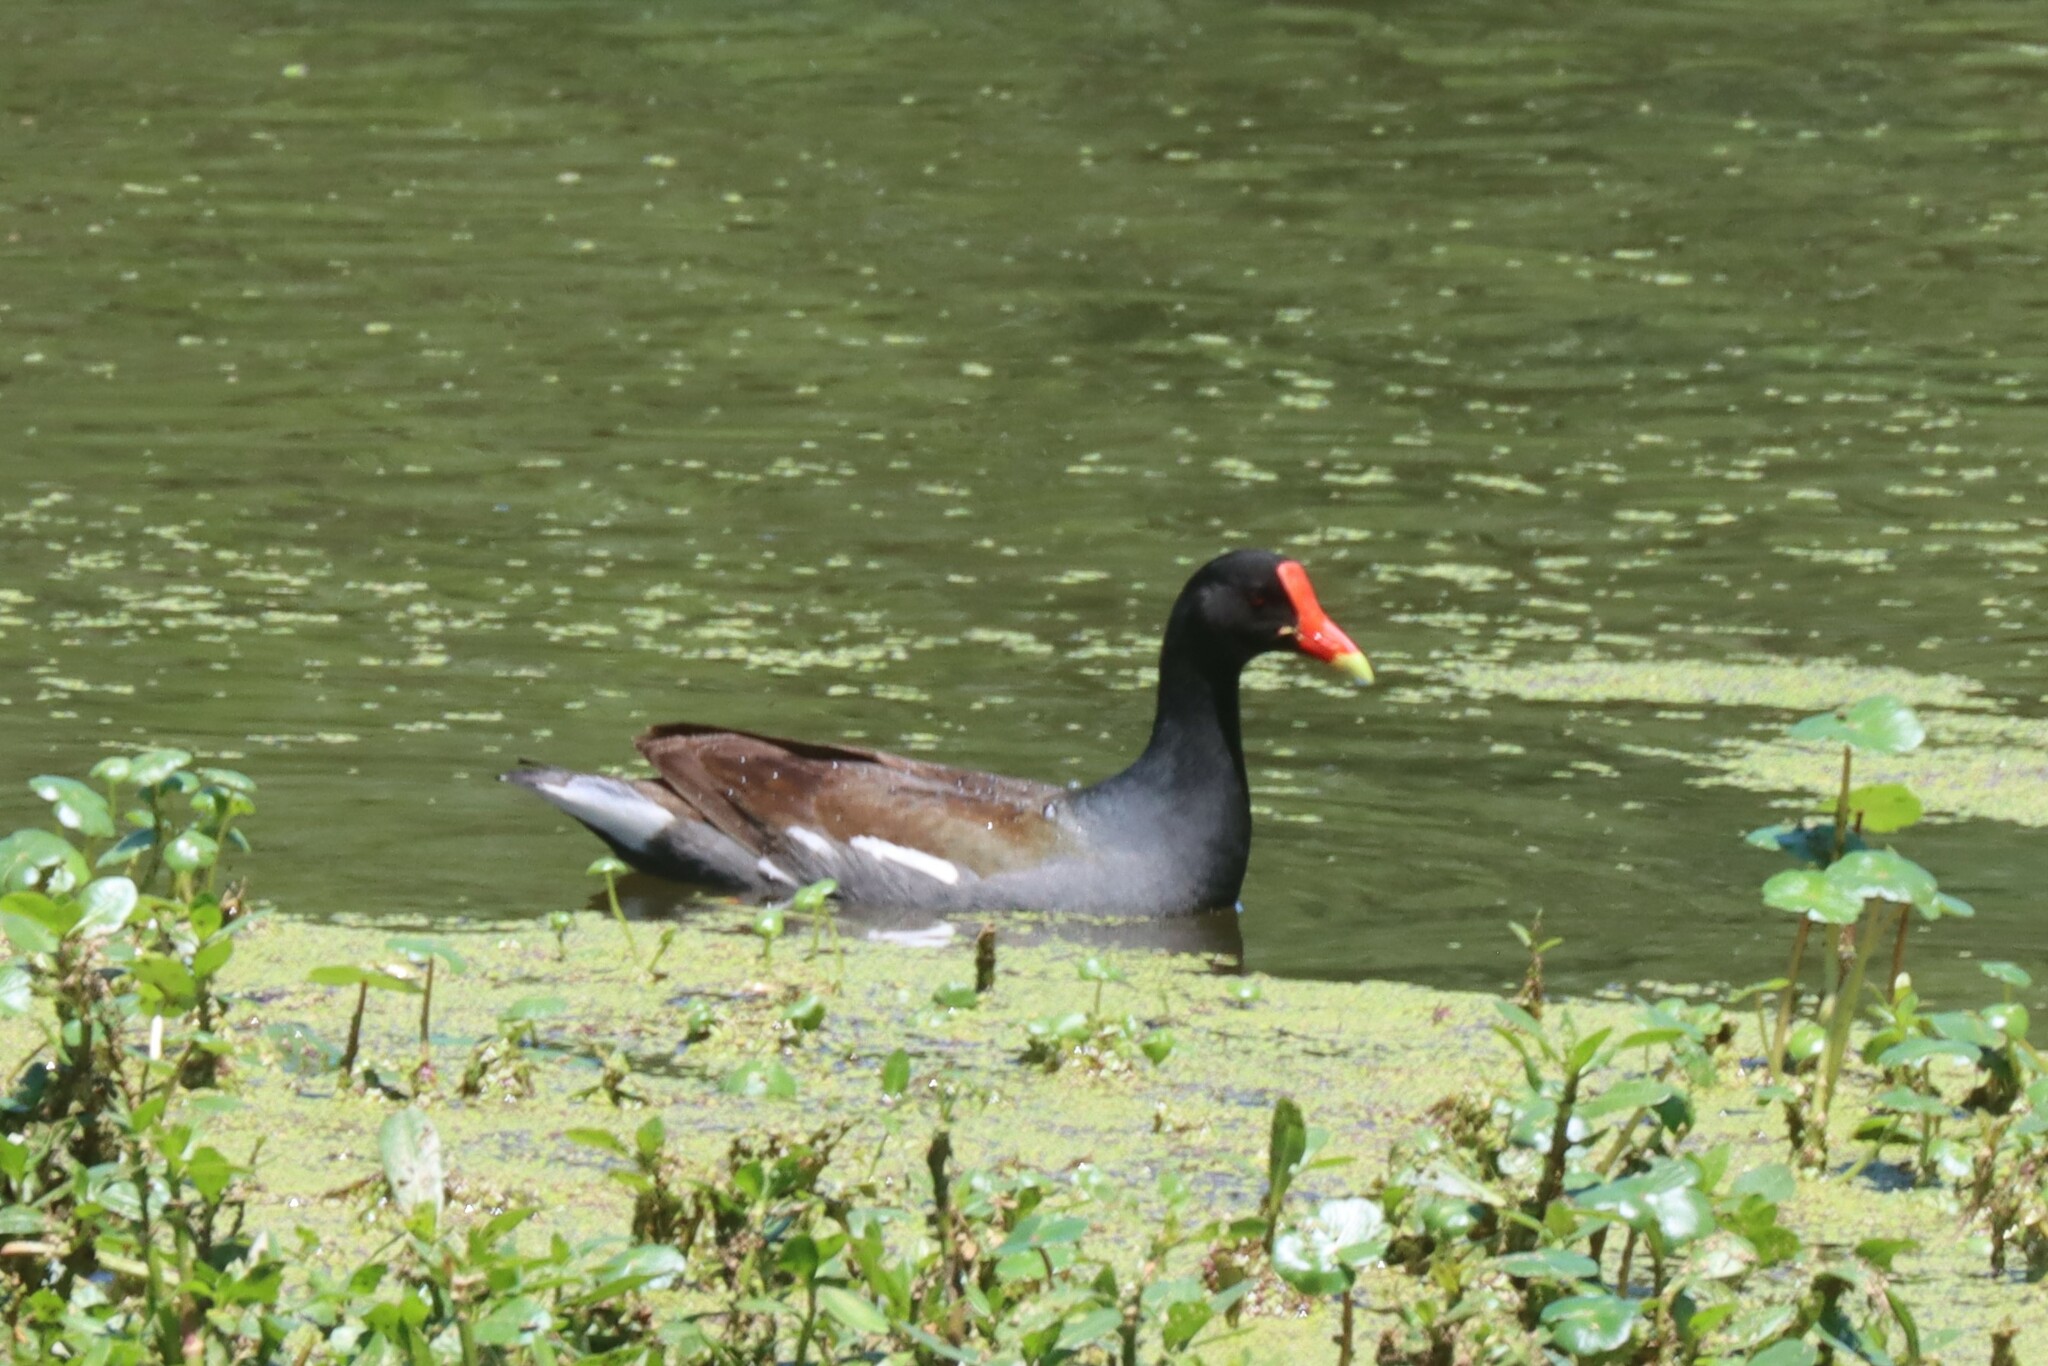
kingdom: Animalia
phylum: Chordata
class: Aves
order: Gruiformes
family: Rallidae
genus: Gallinula
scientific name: Gallinula chloropus
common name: Common moorhen
